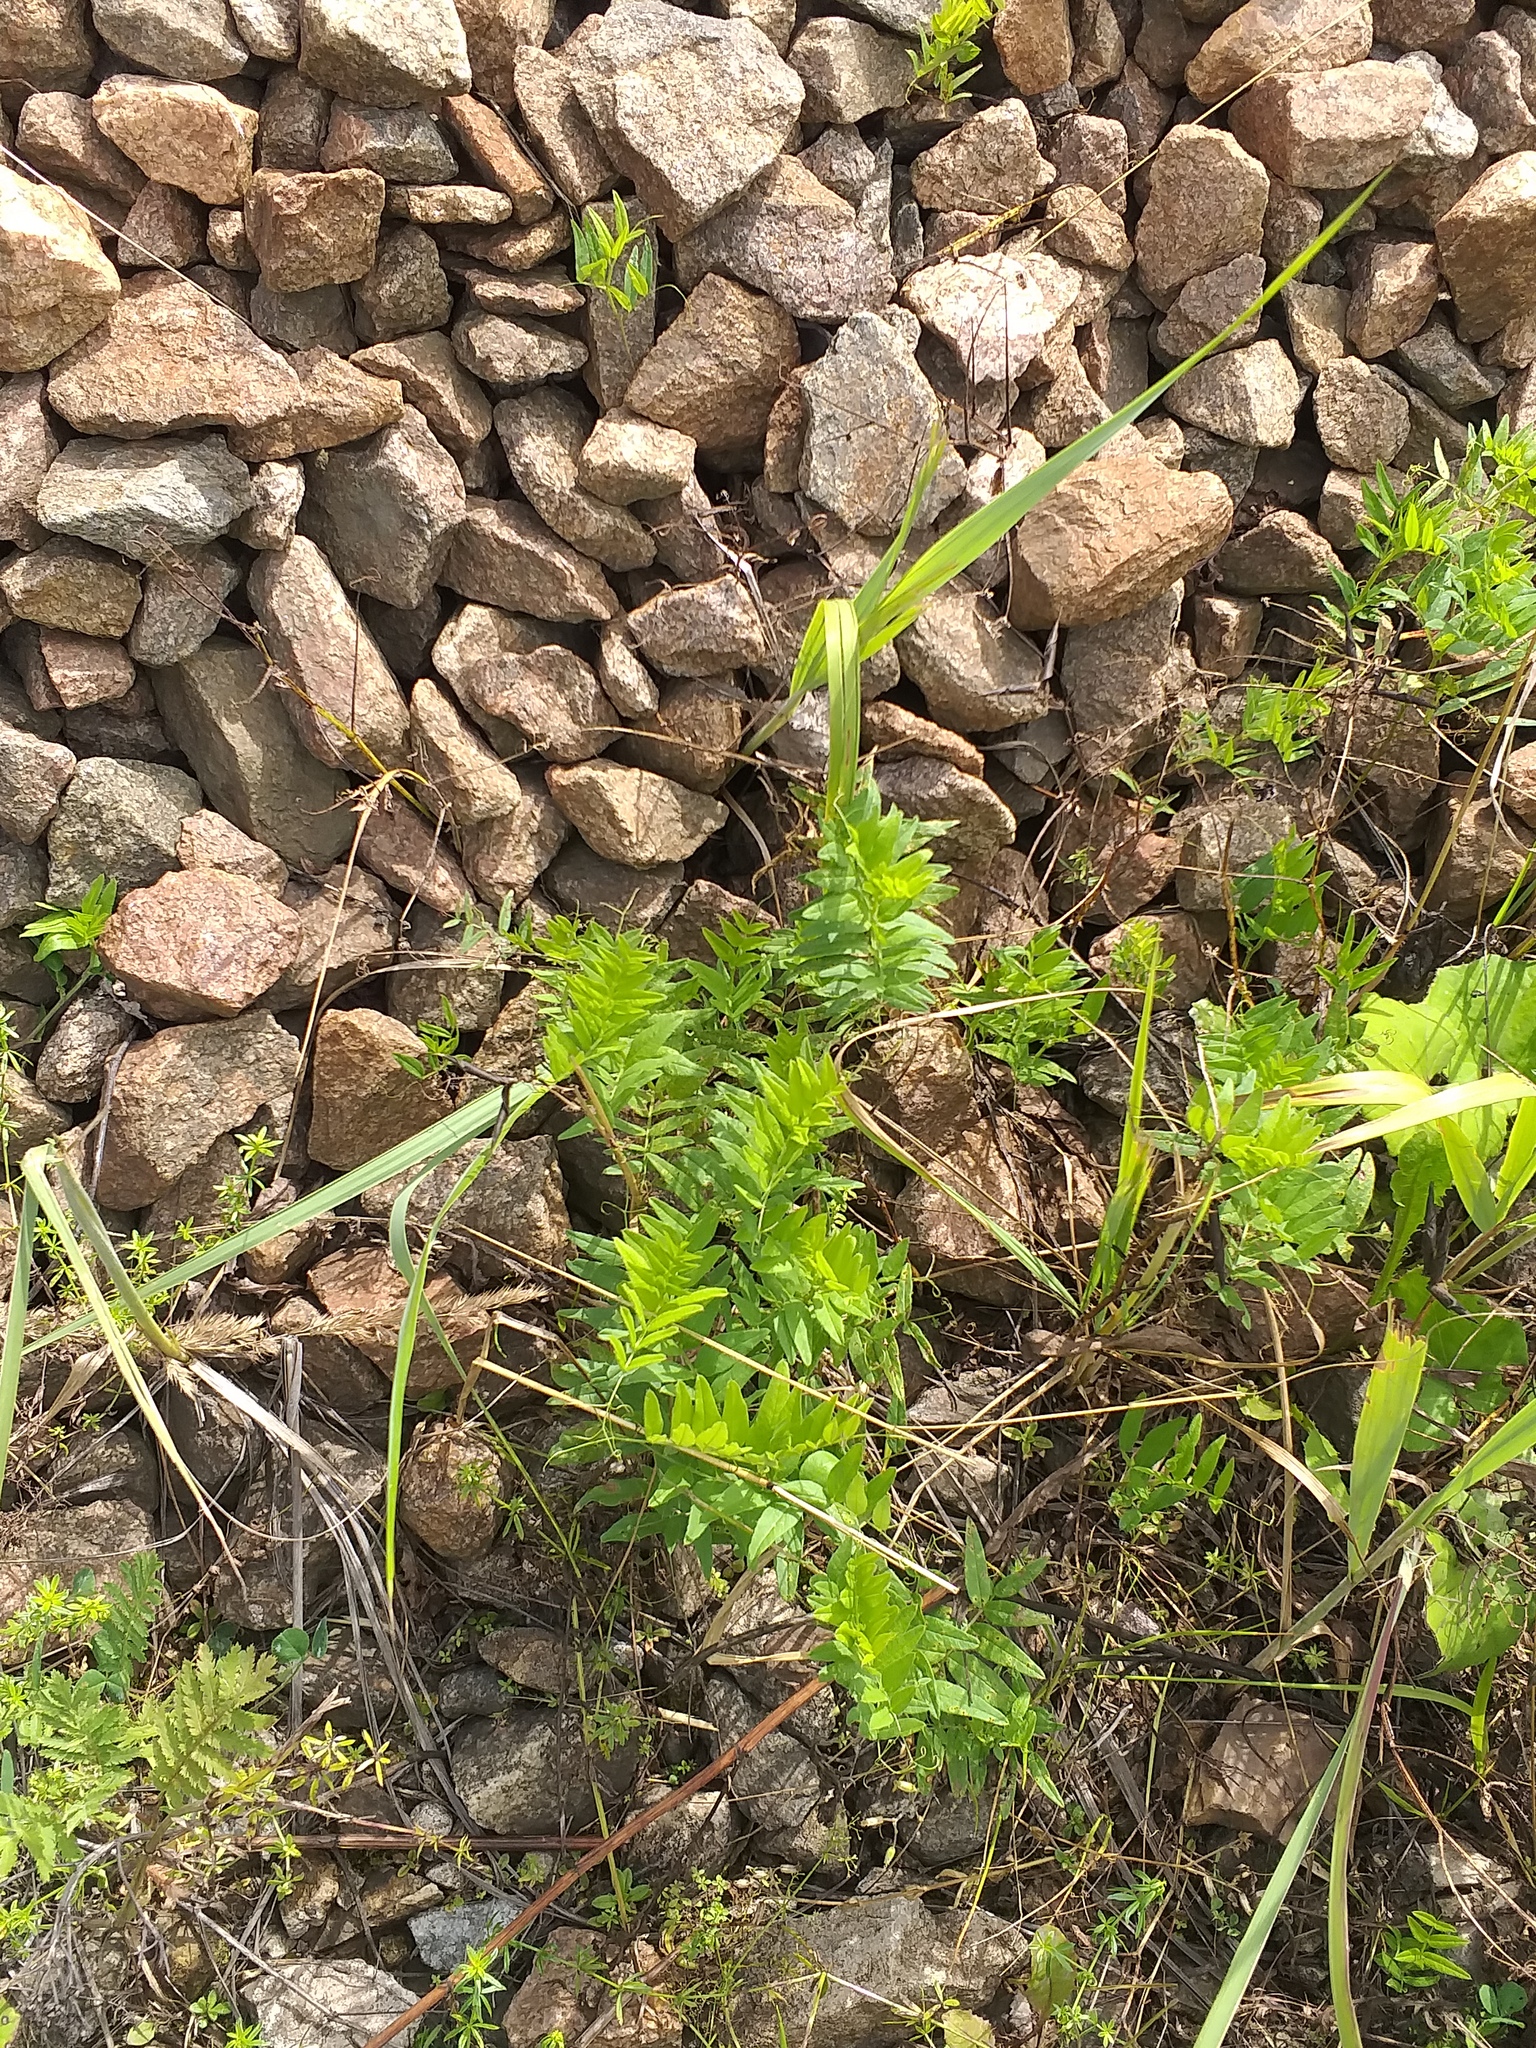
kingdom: Plantae
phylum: Tracheophyta
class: Magnoliopsida
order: Fabales
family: Fabaceae
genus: Vicia
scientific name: Vicia sepium
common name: Bush vetch
